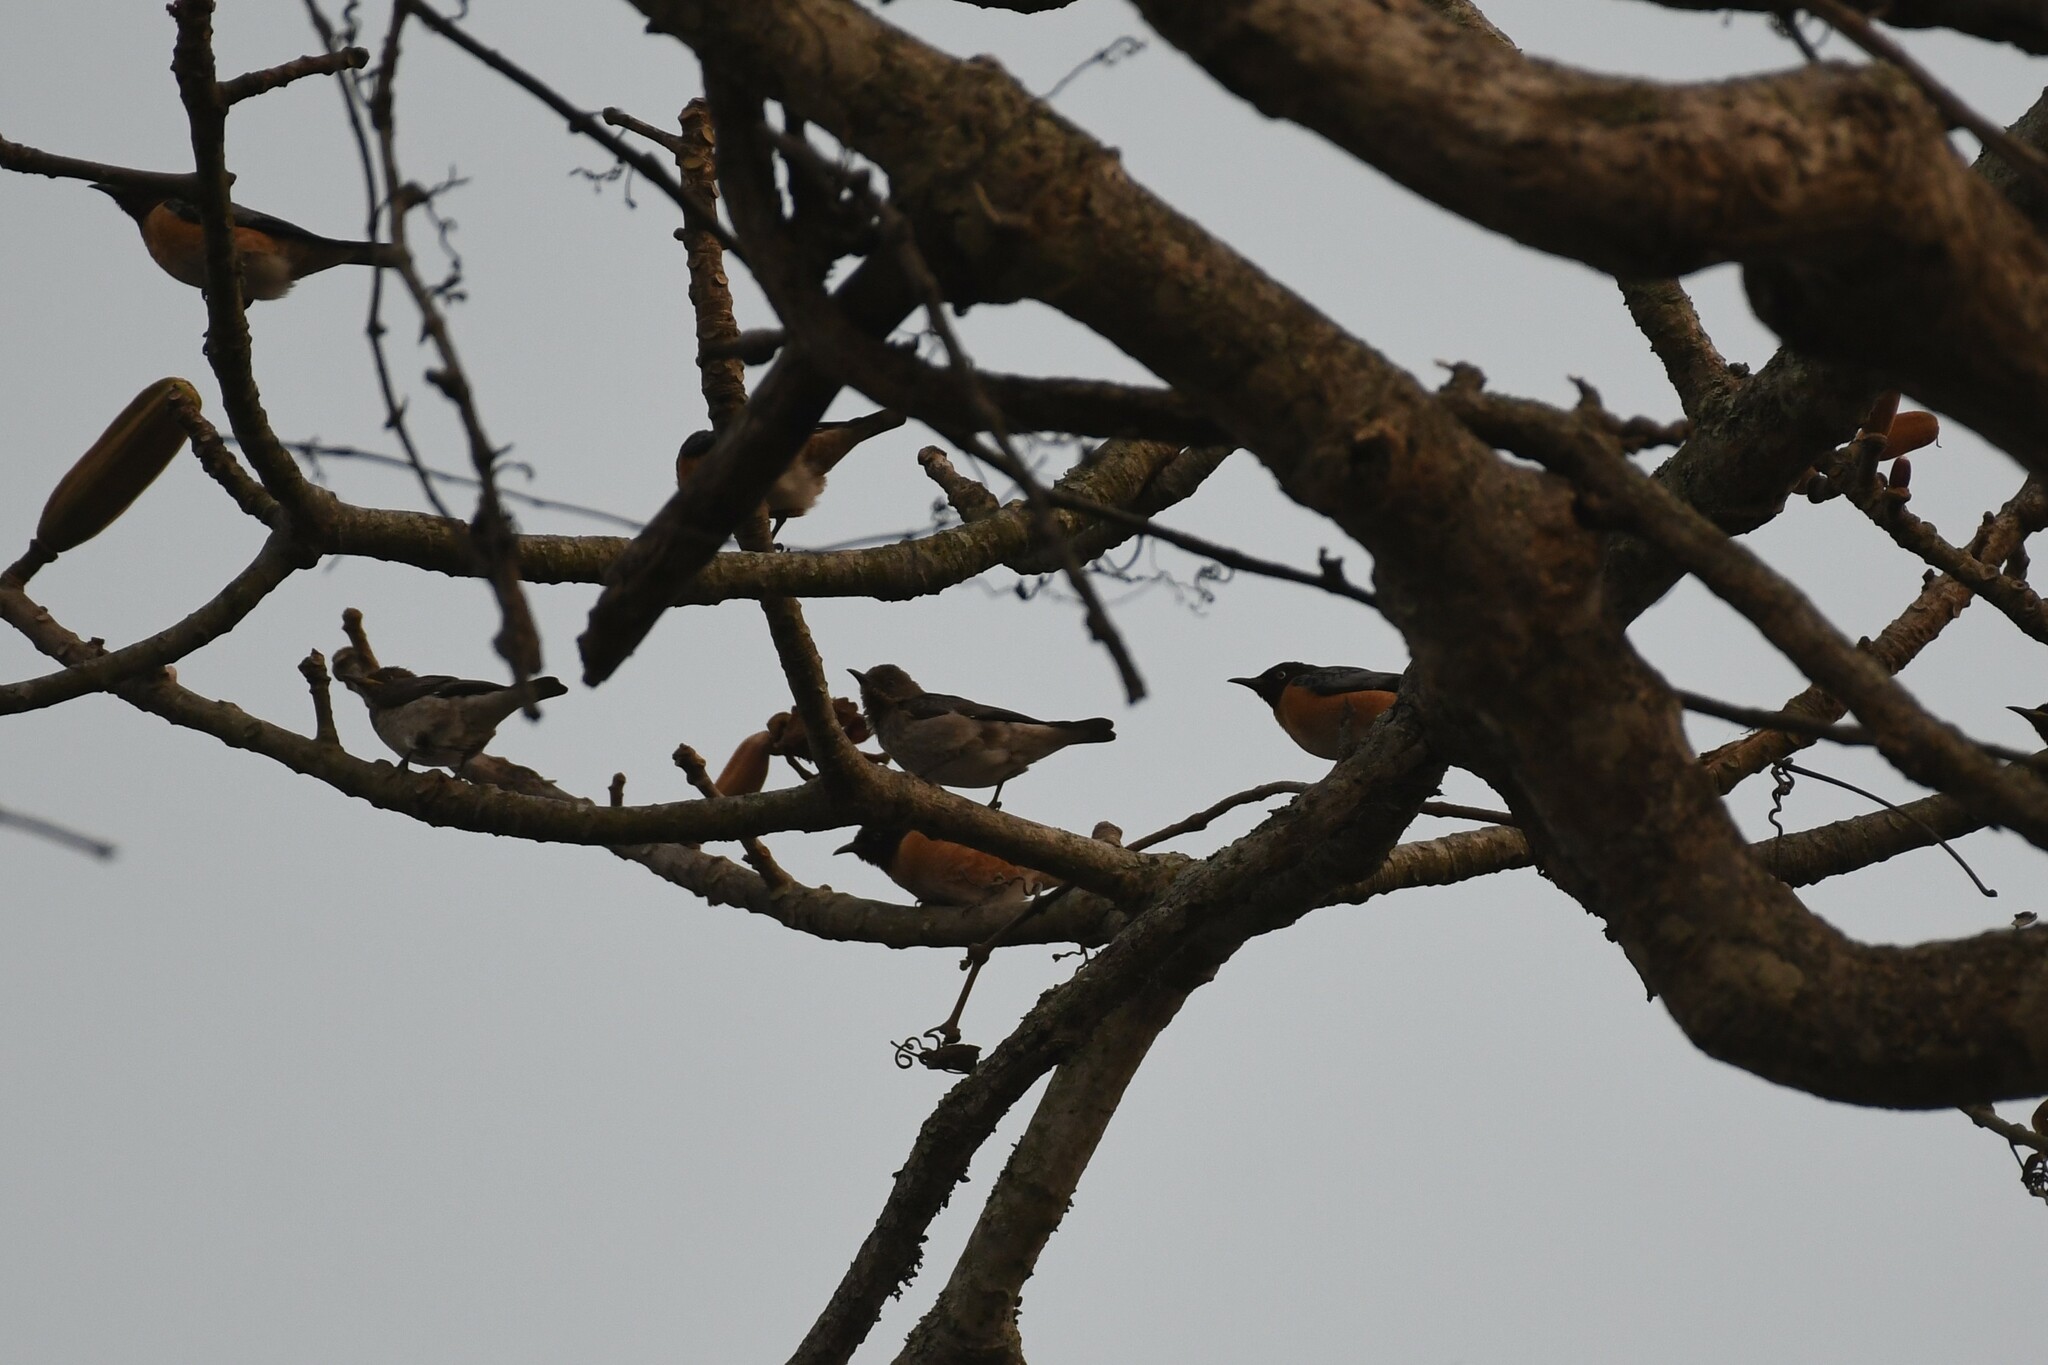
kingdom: Animalia
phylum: Chordata
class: Aves
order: Passeriformes
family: Sturnidae
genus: Saroglossa
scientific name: Saroglossa spiloptera
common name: Spot-winged starling
